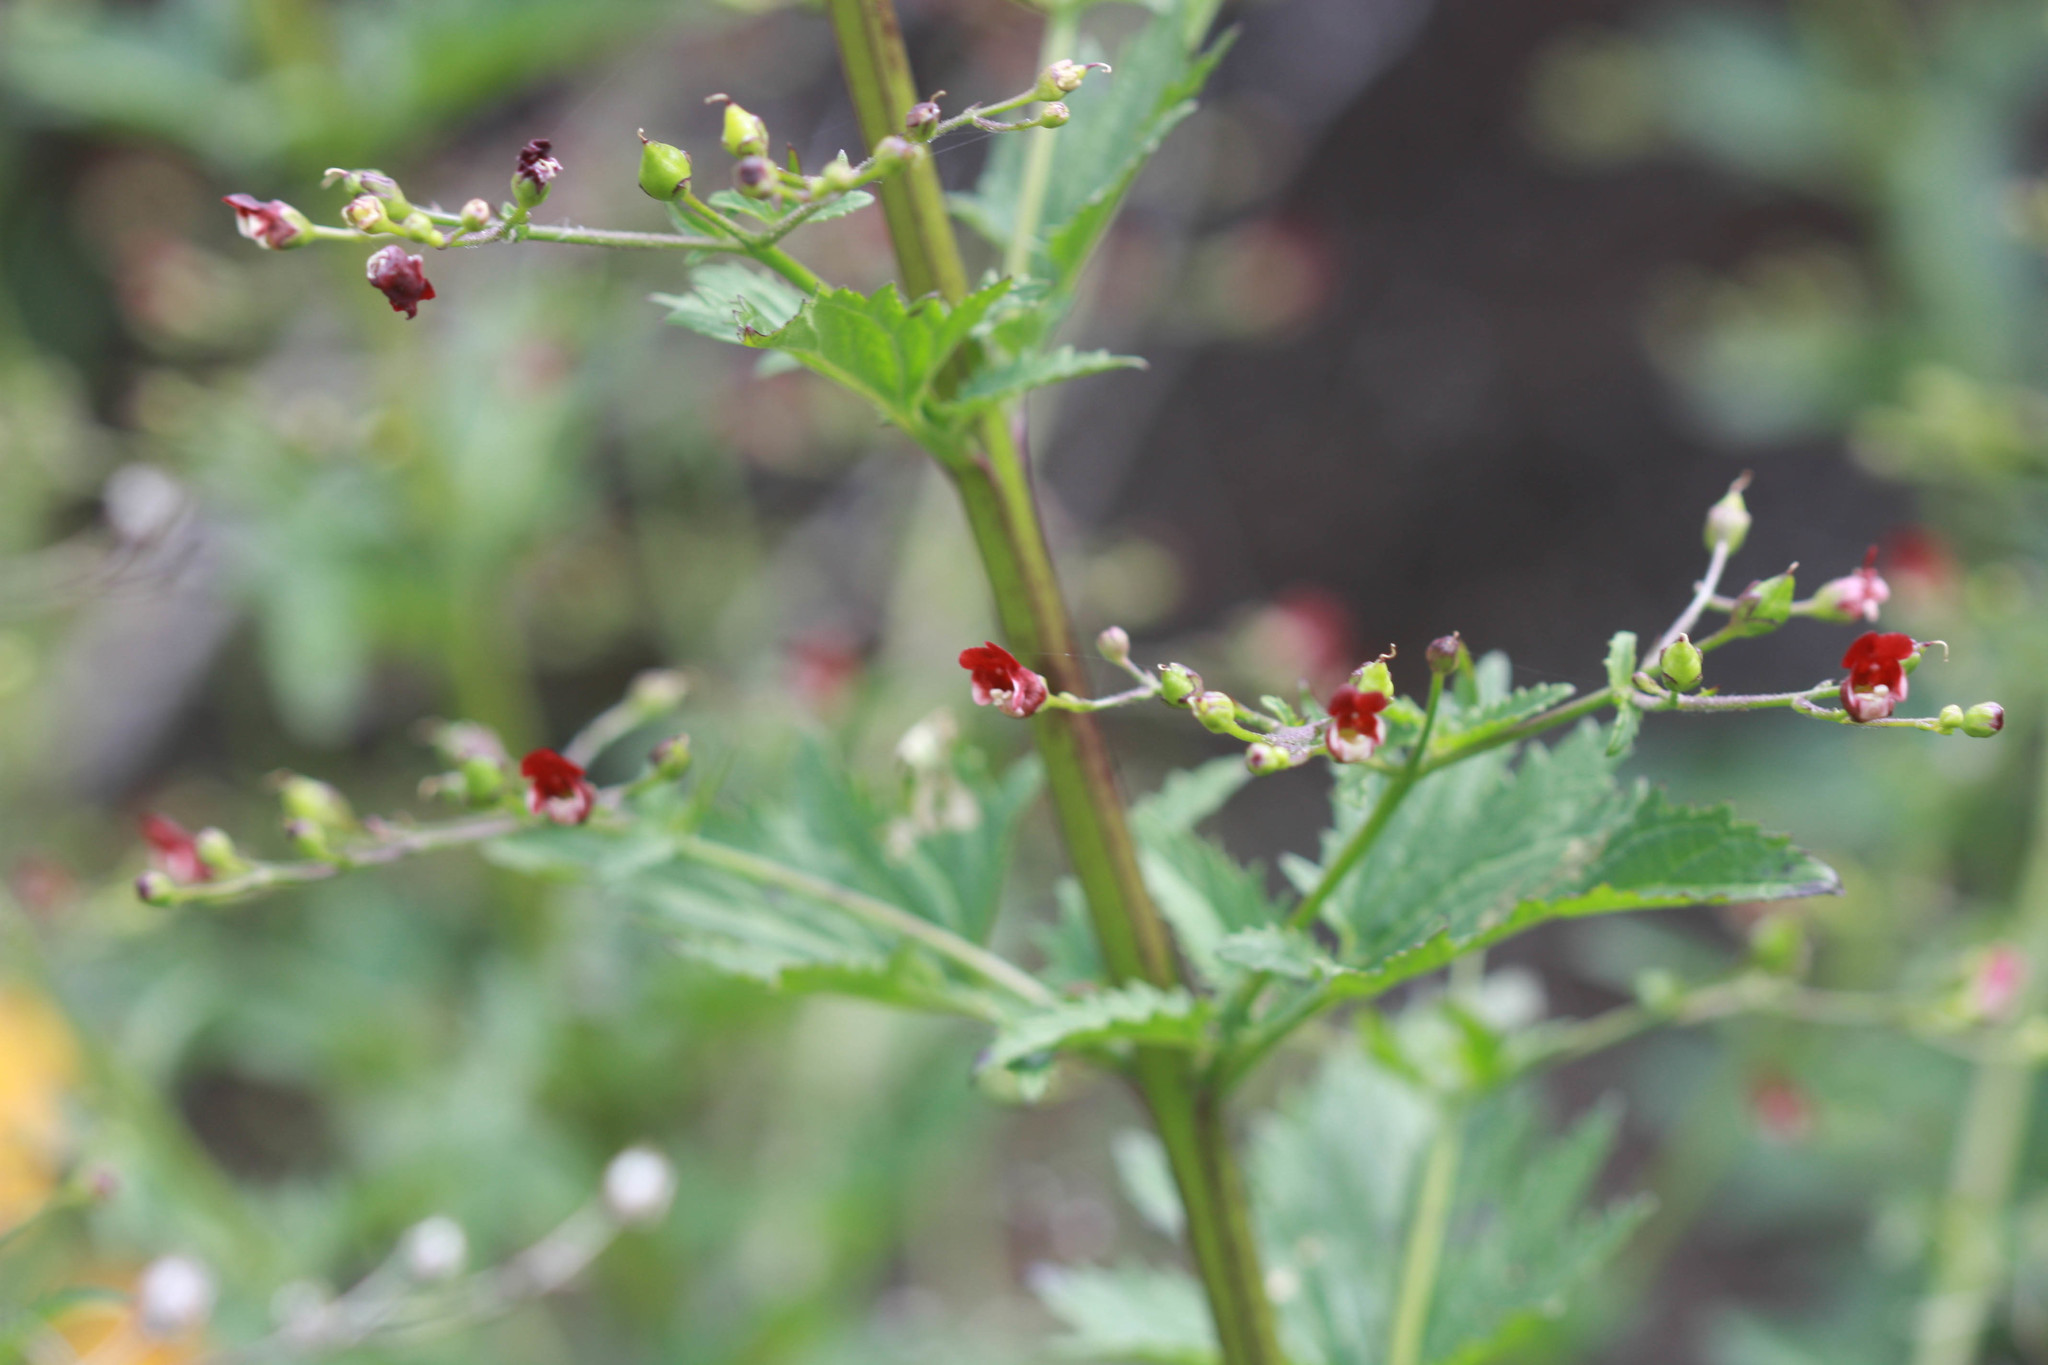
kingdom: Plantae
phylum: Tracheophyta
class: Magnoliopsida
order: Lamiales
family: Scrophulariaceae
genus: Scrophularia
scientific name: Scrophularia californica
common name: California figwort
